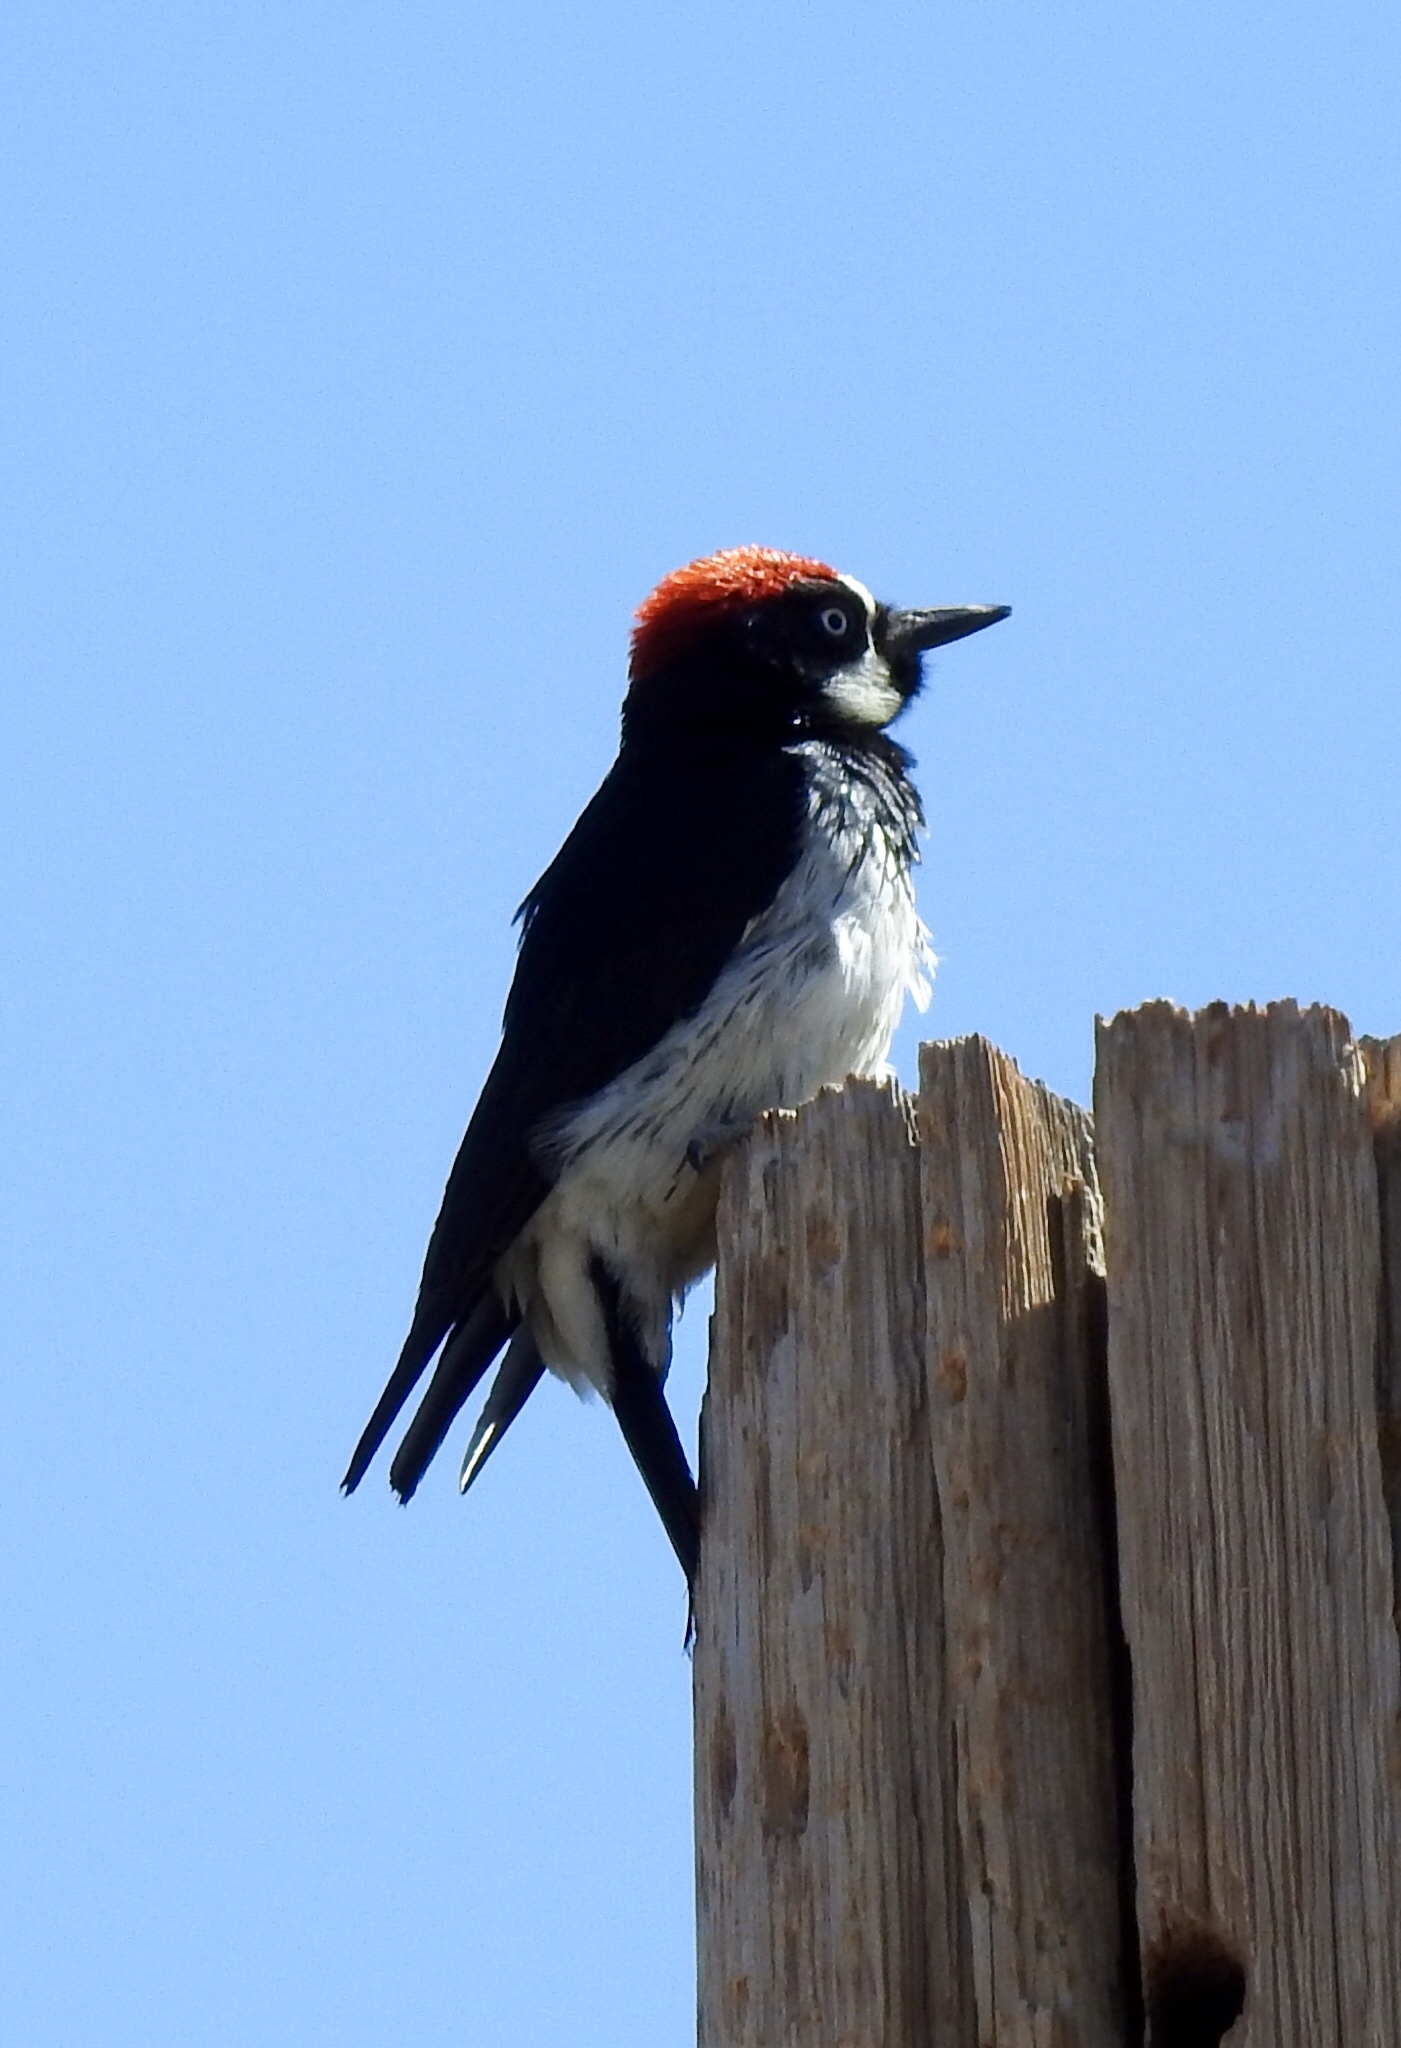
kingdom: Animalia
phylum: Chordata
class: Aves
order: Piciformes
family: Picidae
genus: Melanerpes
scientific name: Melanerpes formicivorus
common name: Acorn woodpecker
